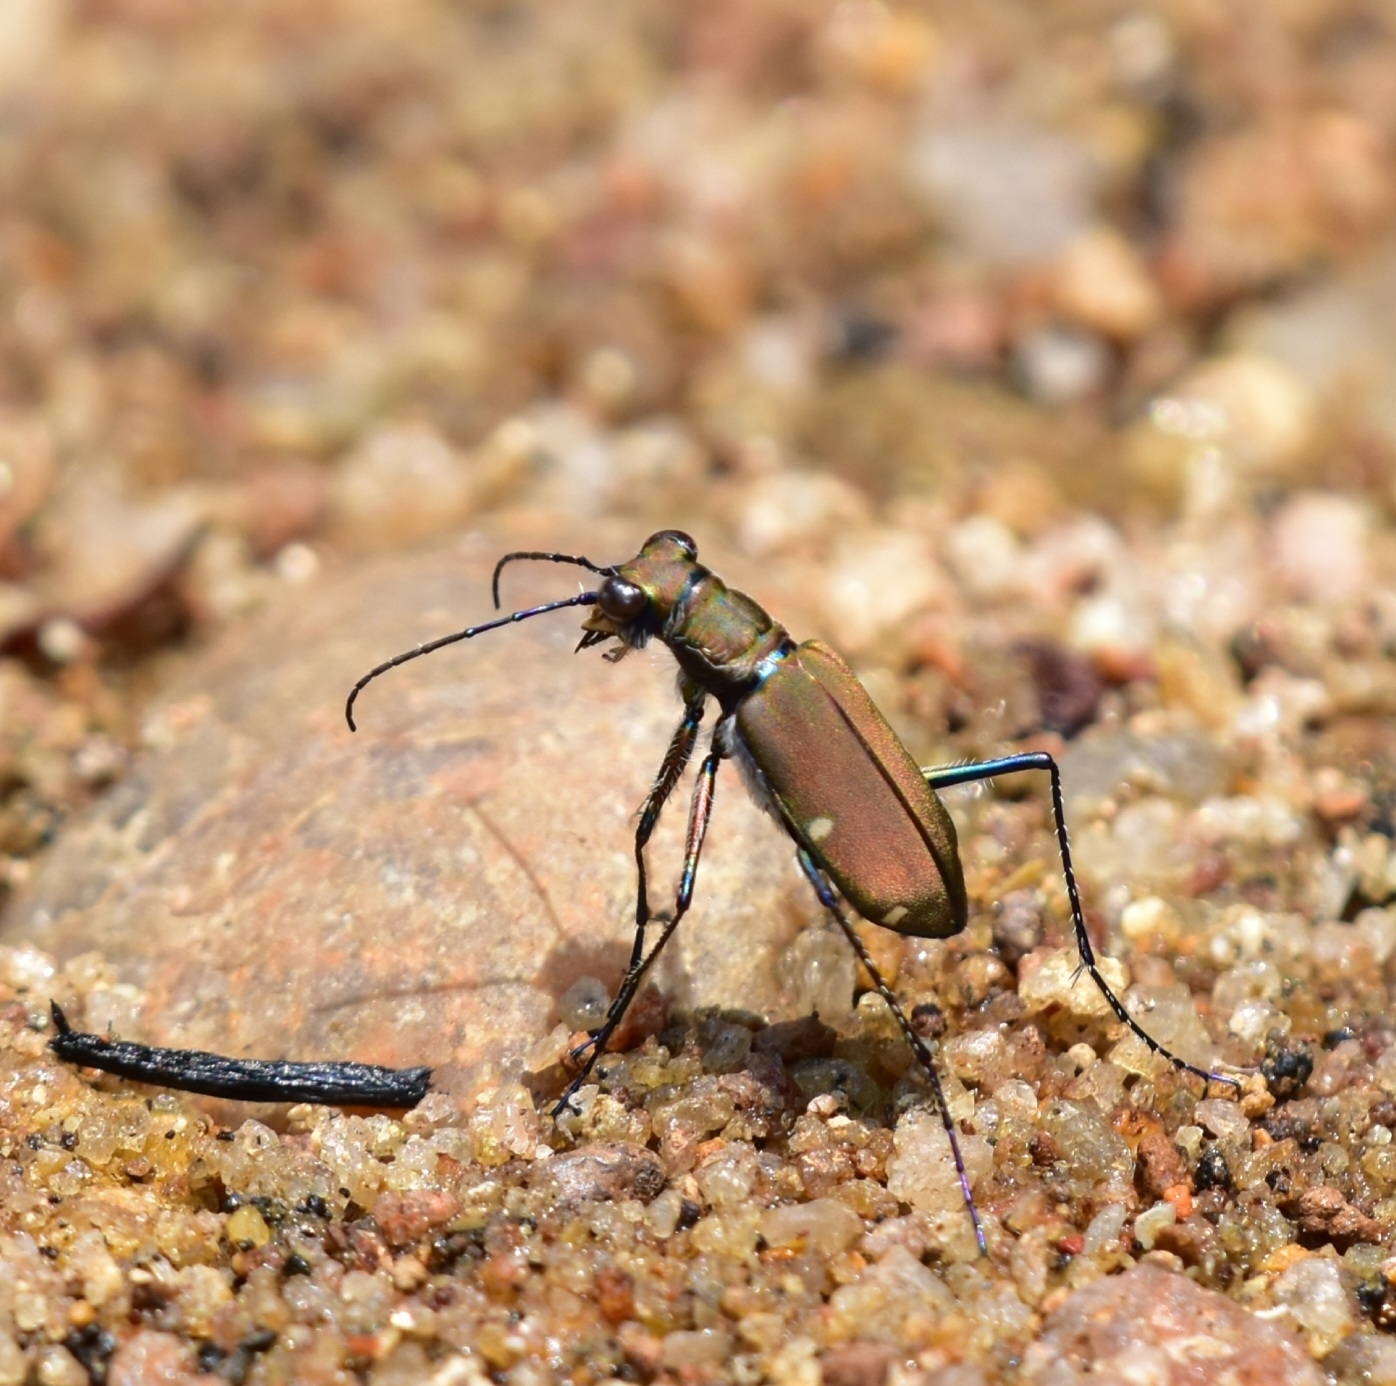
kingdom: Animalia
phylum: Arthropoda
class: Insecta
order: Coleoptera
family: Carabidae
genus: Cicindela
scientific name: Cicindela quadripunctulata
